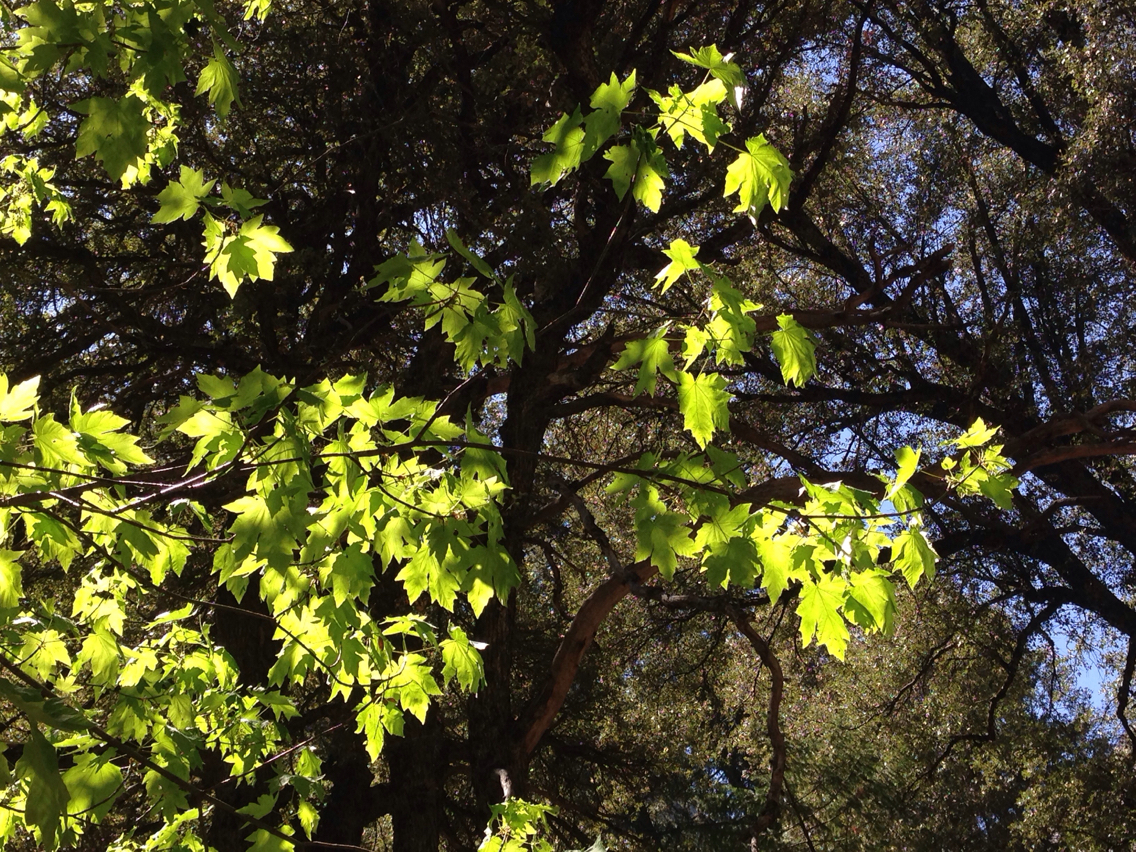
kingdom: Plantae
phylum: Tracheophyta
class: Magnoliopsida
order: Sapindales
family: Sapindaceae
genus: Acer
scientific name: Acer macrophyllum
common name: Oregon maple
